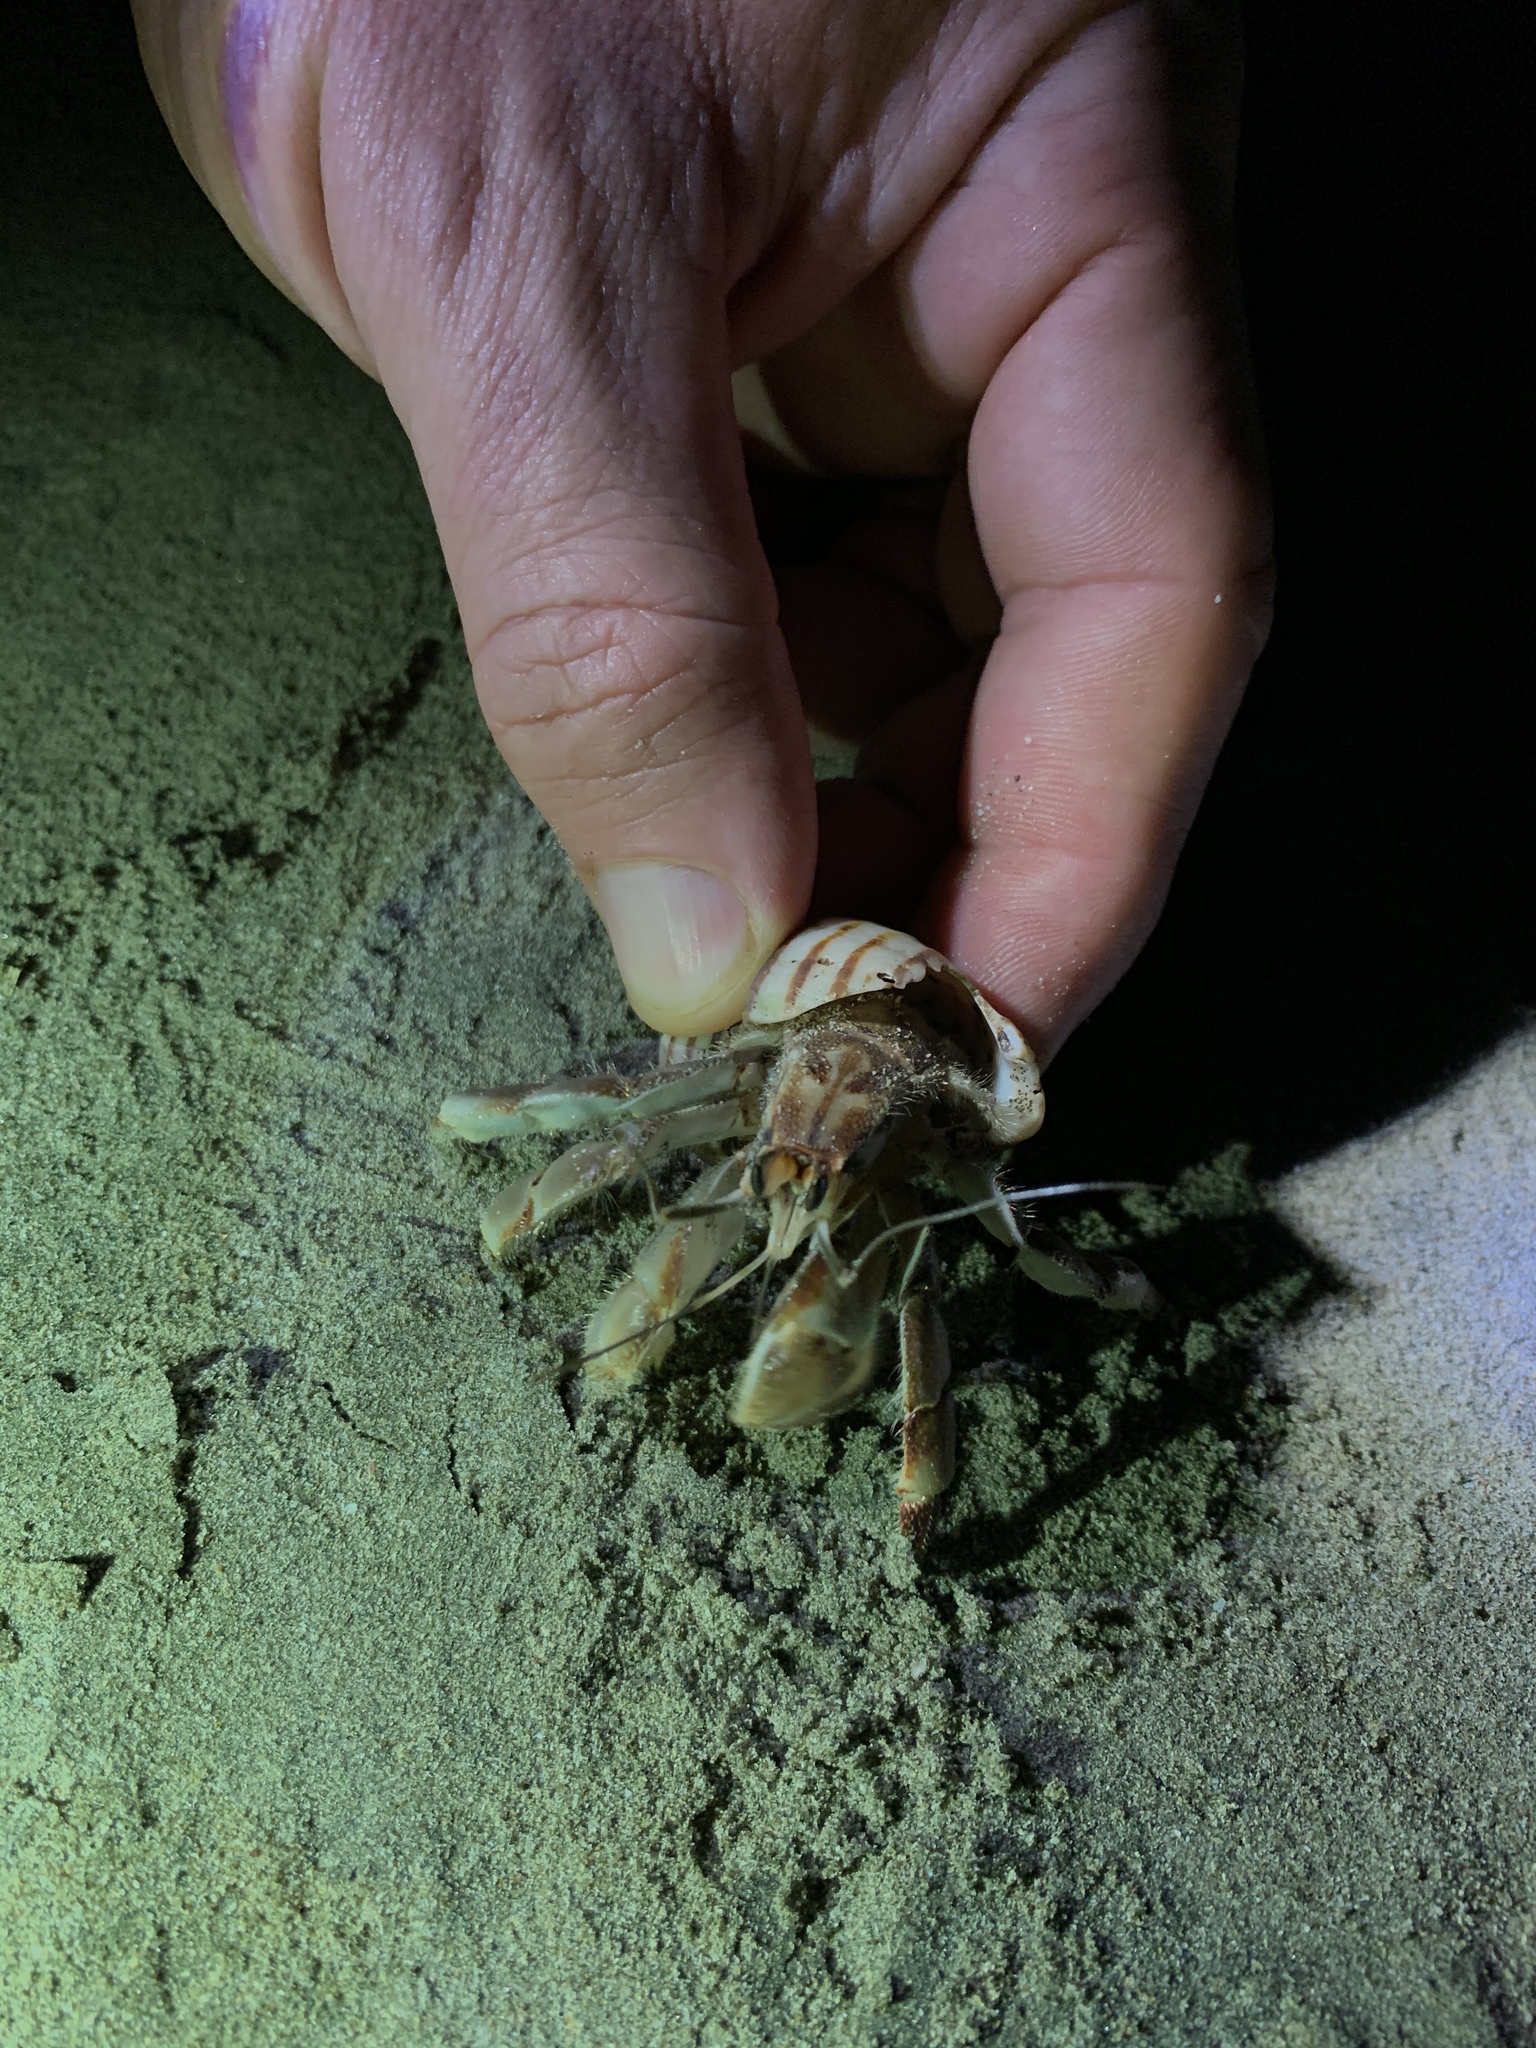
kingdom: Animalia
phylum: Arthropoda
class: Malacostraca
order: Decapoda
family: Coenobitidae
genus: Coenobita
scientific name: Coenobita compressus
